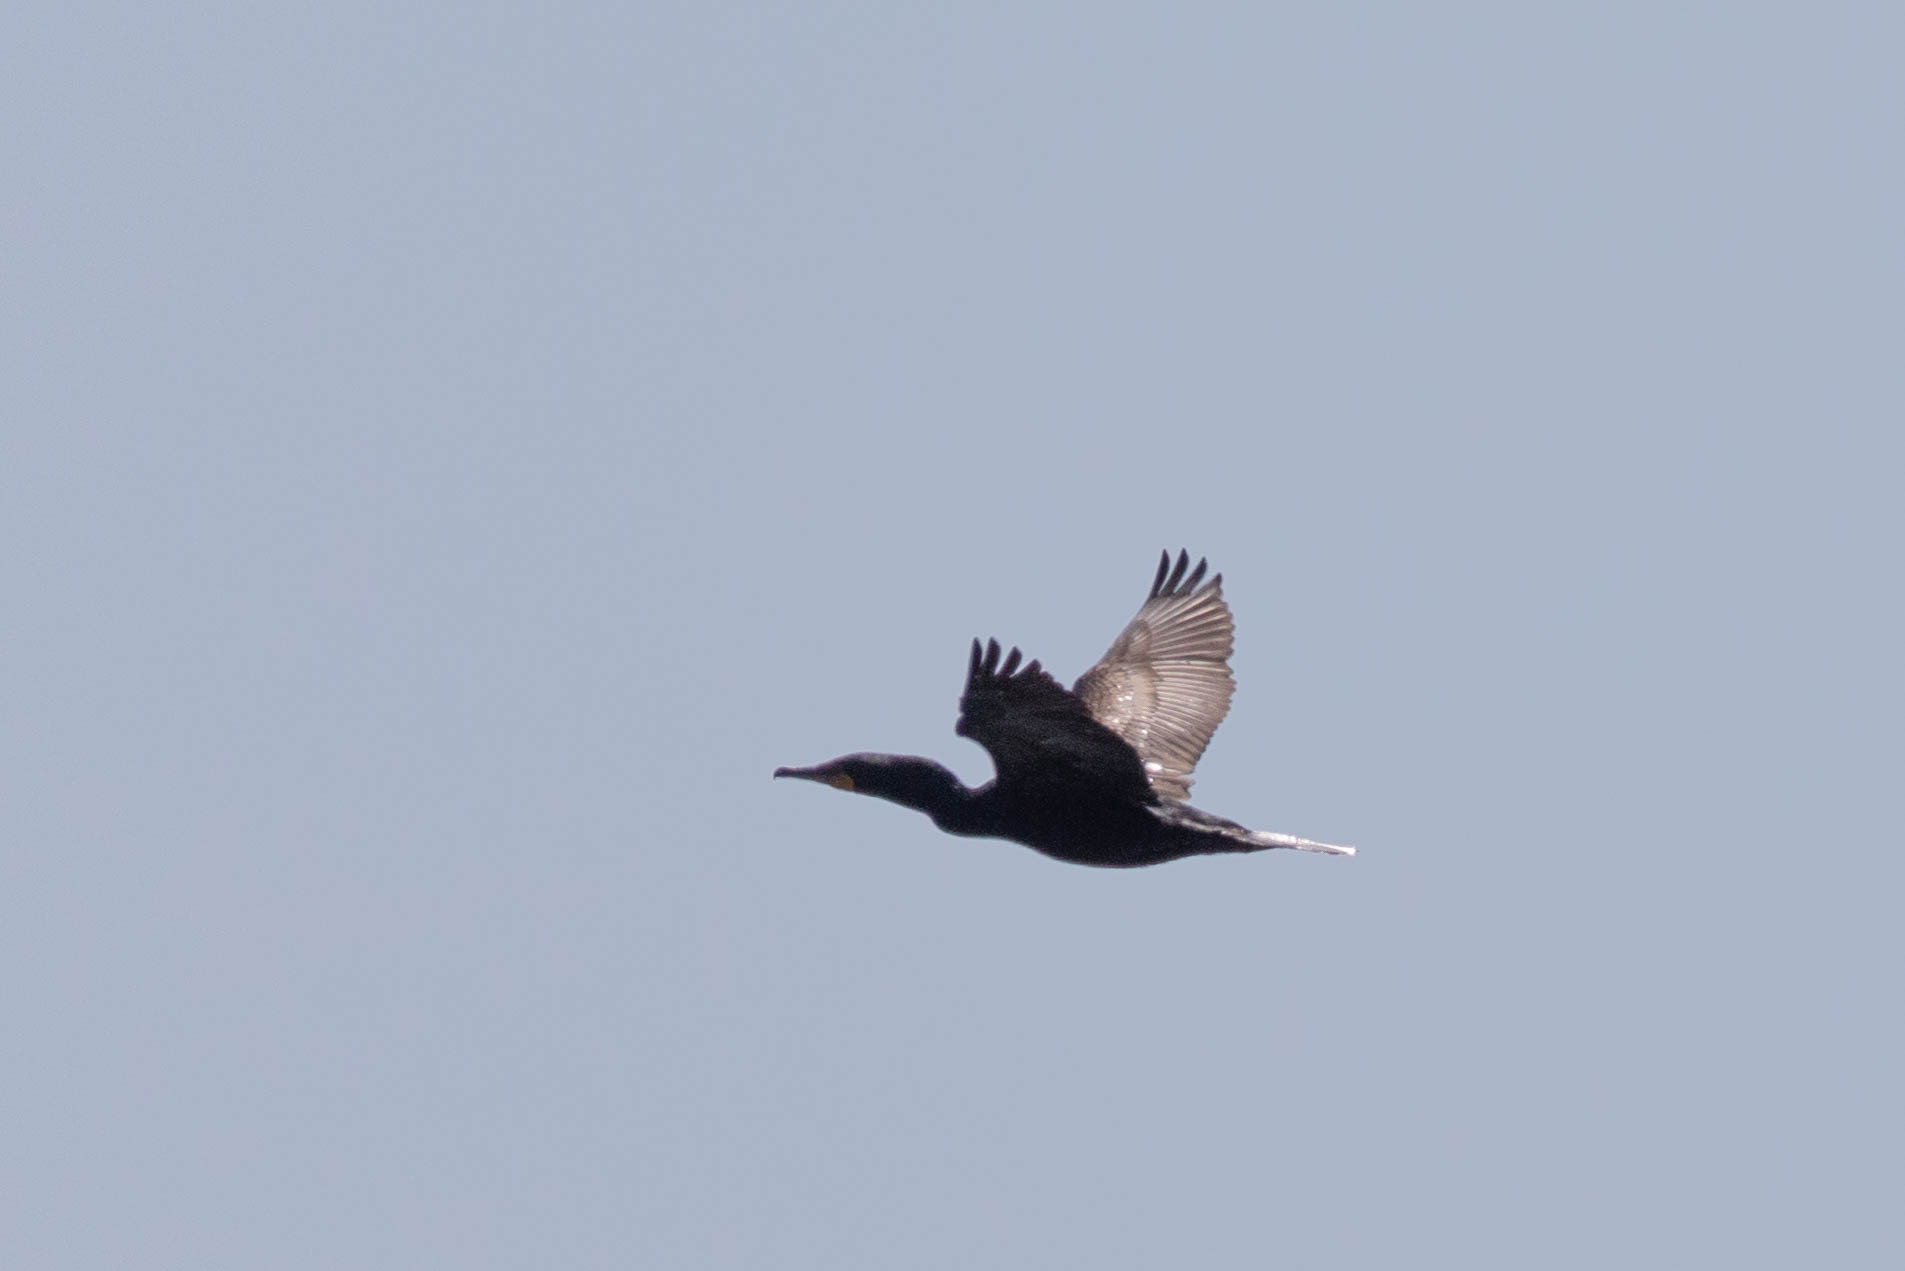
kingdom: Animalia
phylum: Chordata
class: Aves
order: Suliformes
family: Phalacrocoracidae
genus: Phalacrocorax
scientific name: Phalacrocorax auritus
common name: Double-crested cormorant
